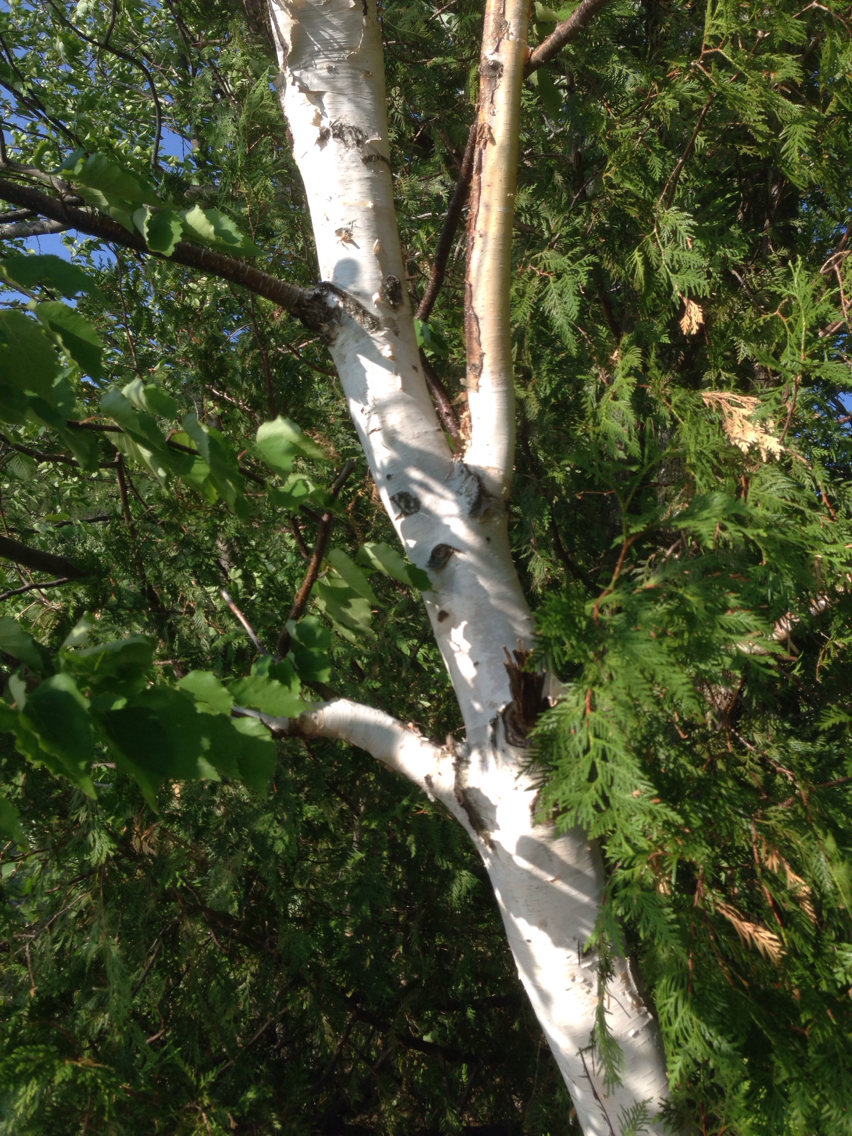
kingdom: Plantae
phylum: Tracheophyta
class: Magnoliopsida
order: Fagales
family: Betulaceae
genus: Betula
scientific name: Betula papyrifera
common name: Paper birch
